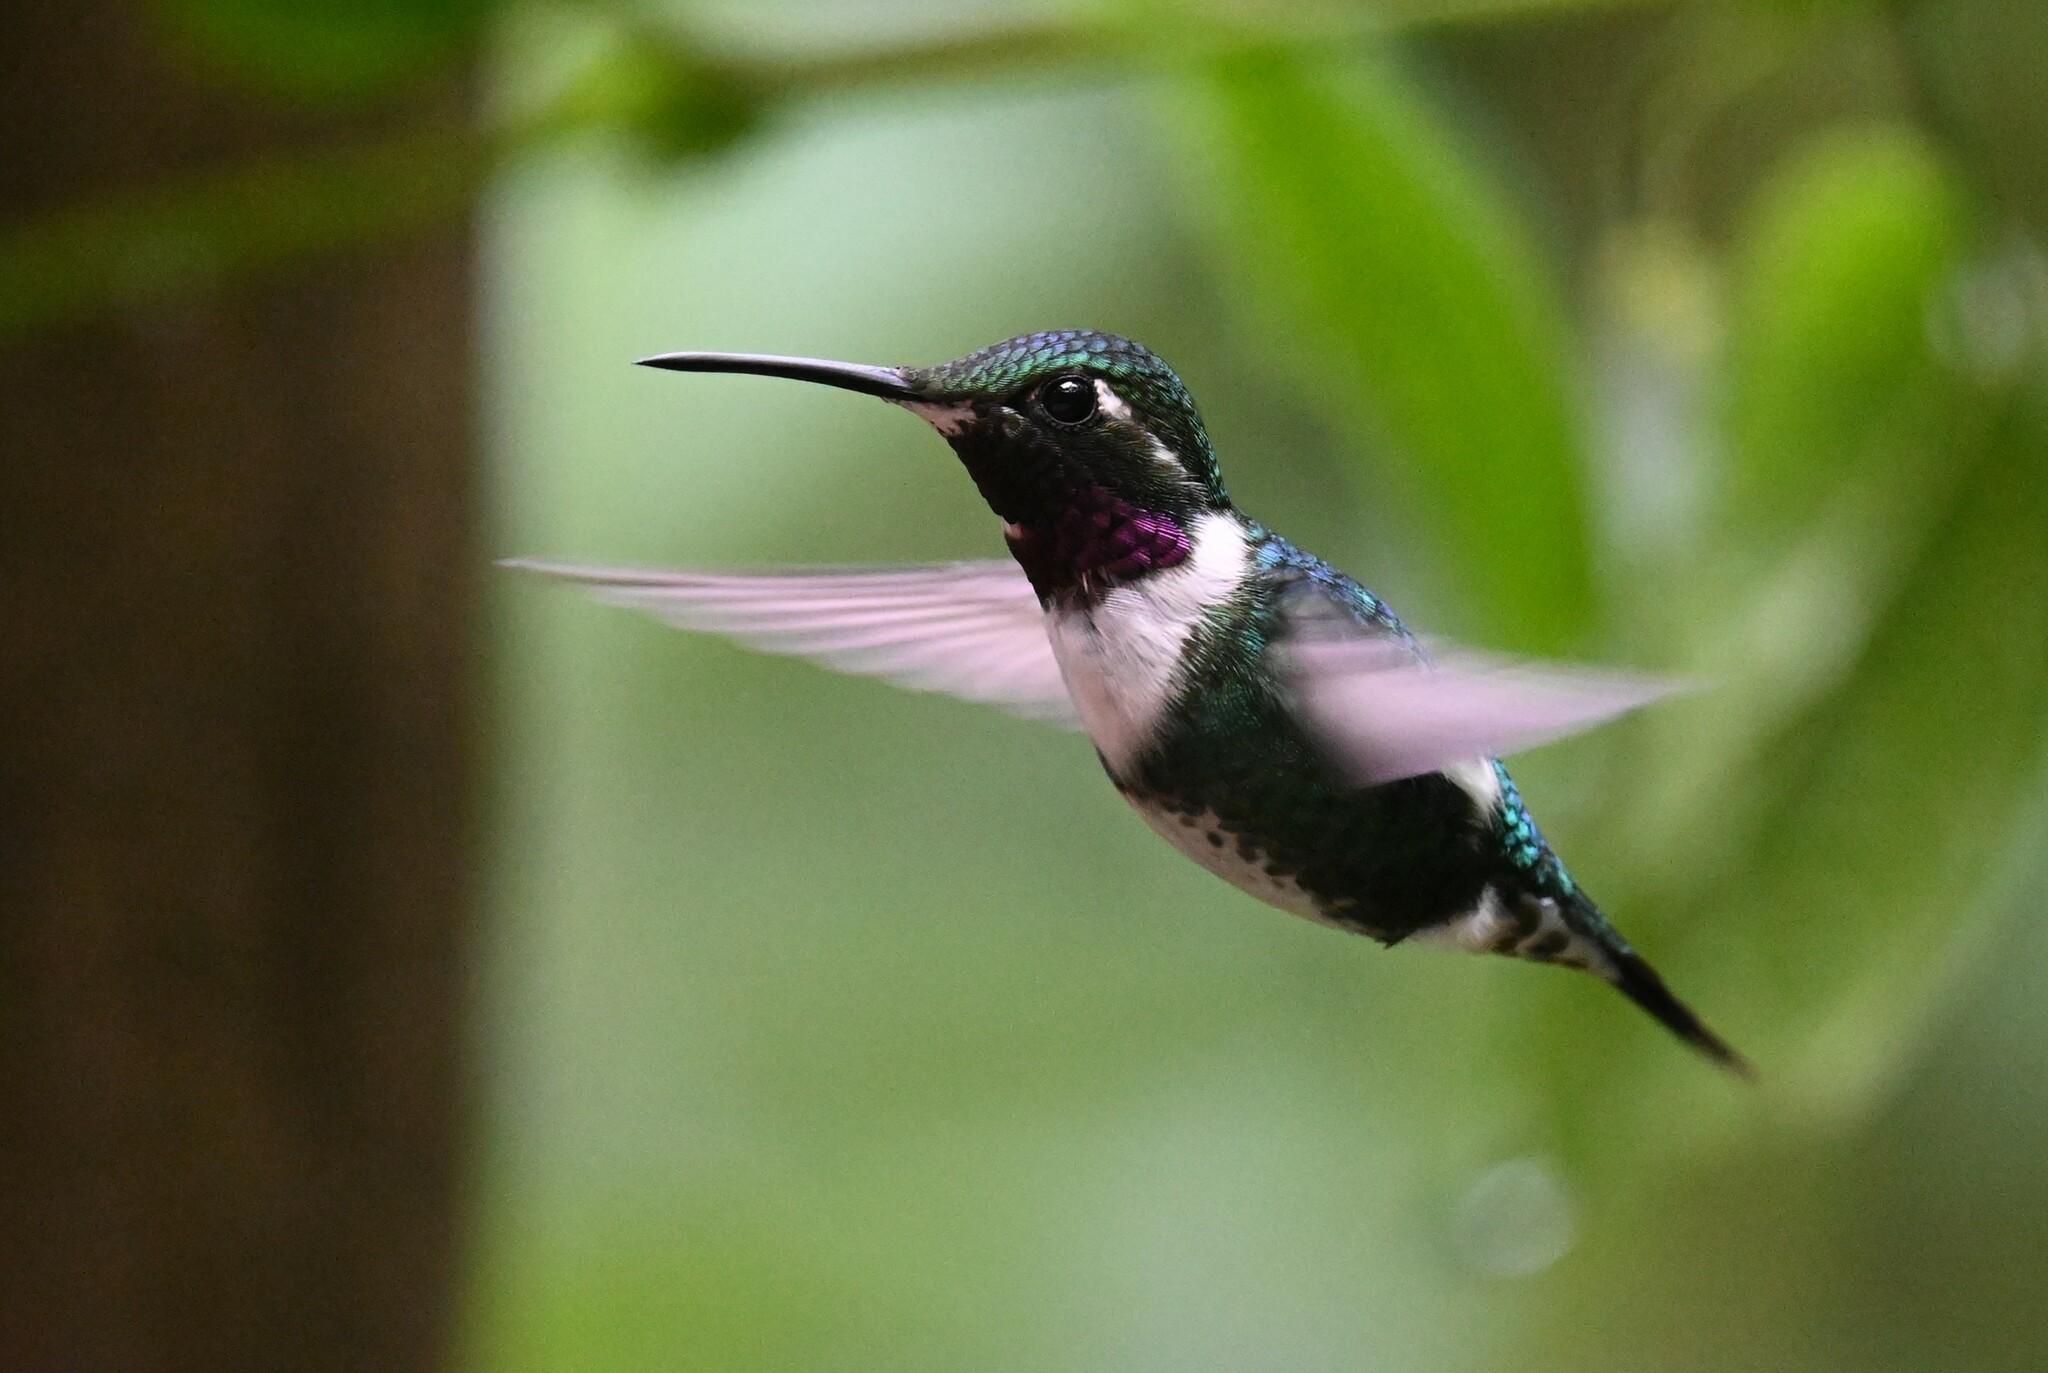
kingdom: Animalia
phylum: Chordata
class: Aves
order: Apodiformes
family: Trochilidae
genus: Chaetocercus
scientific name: Chaetocercus mulsant
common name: White-bellied woodstar
